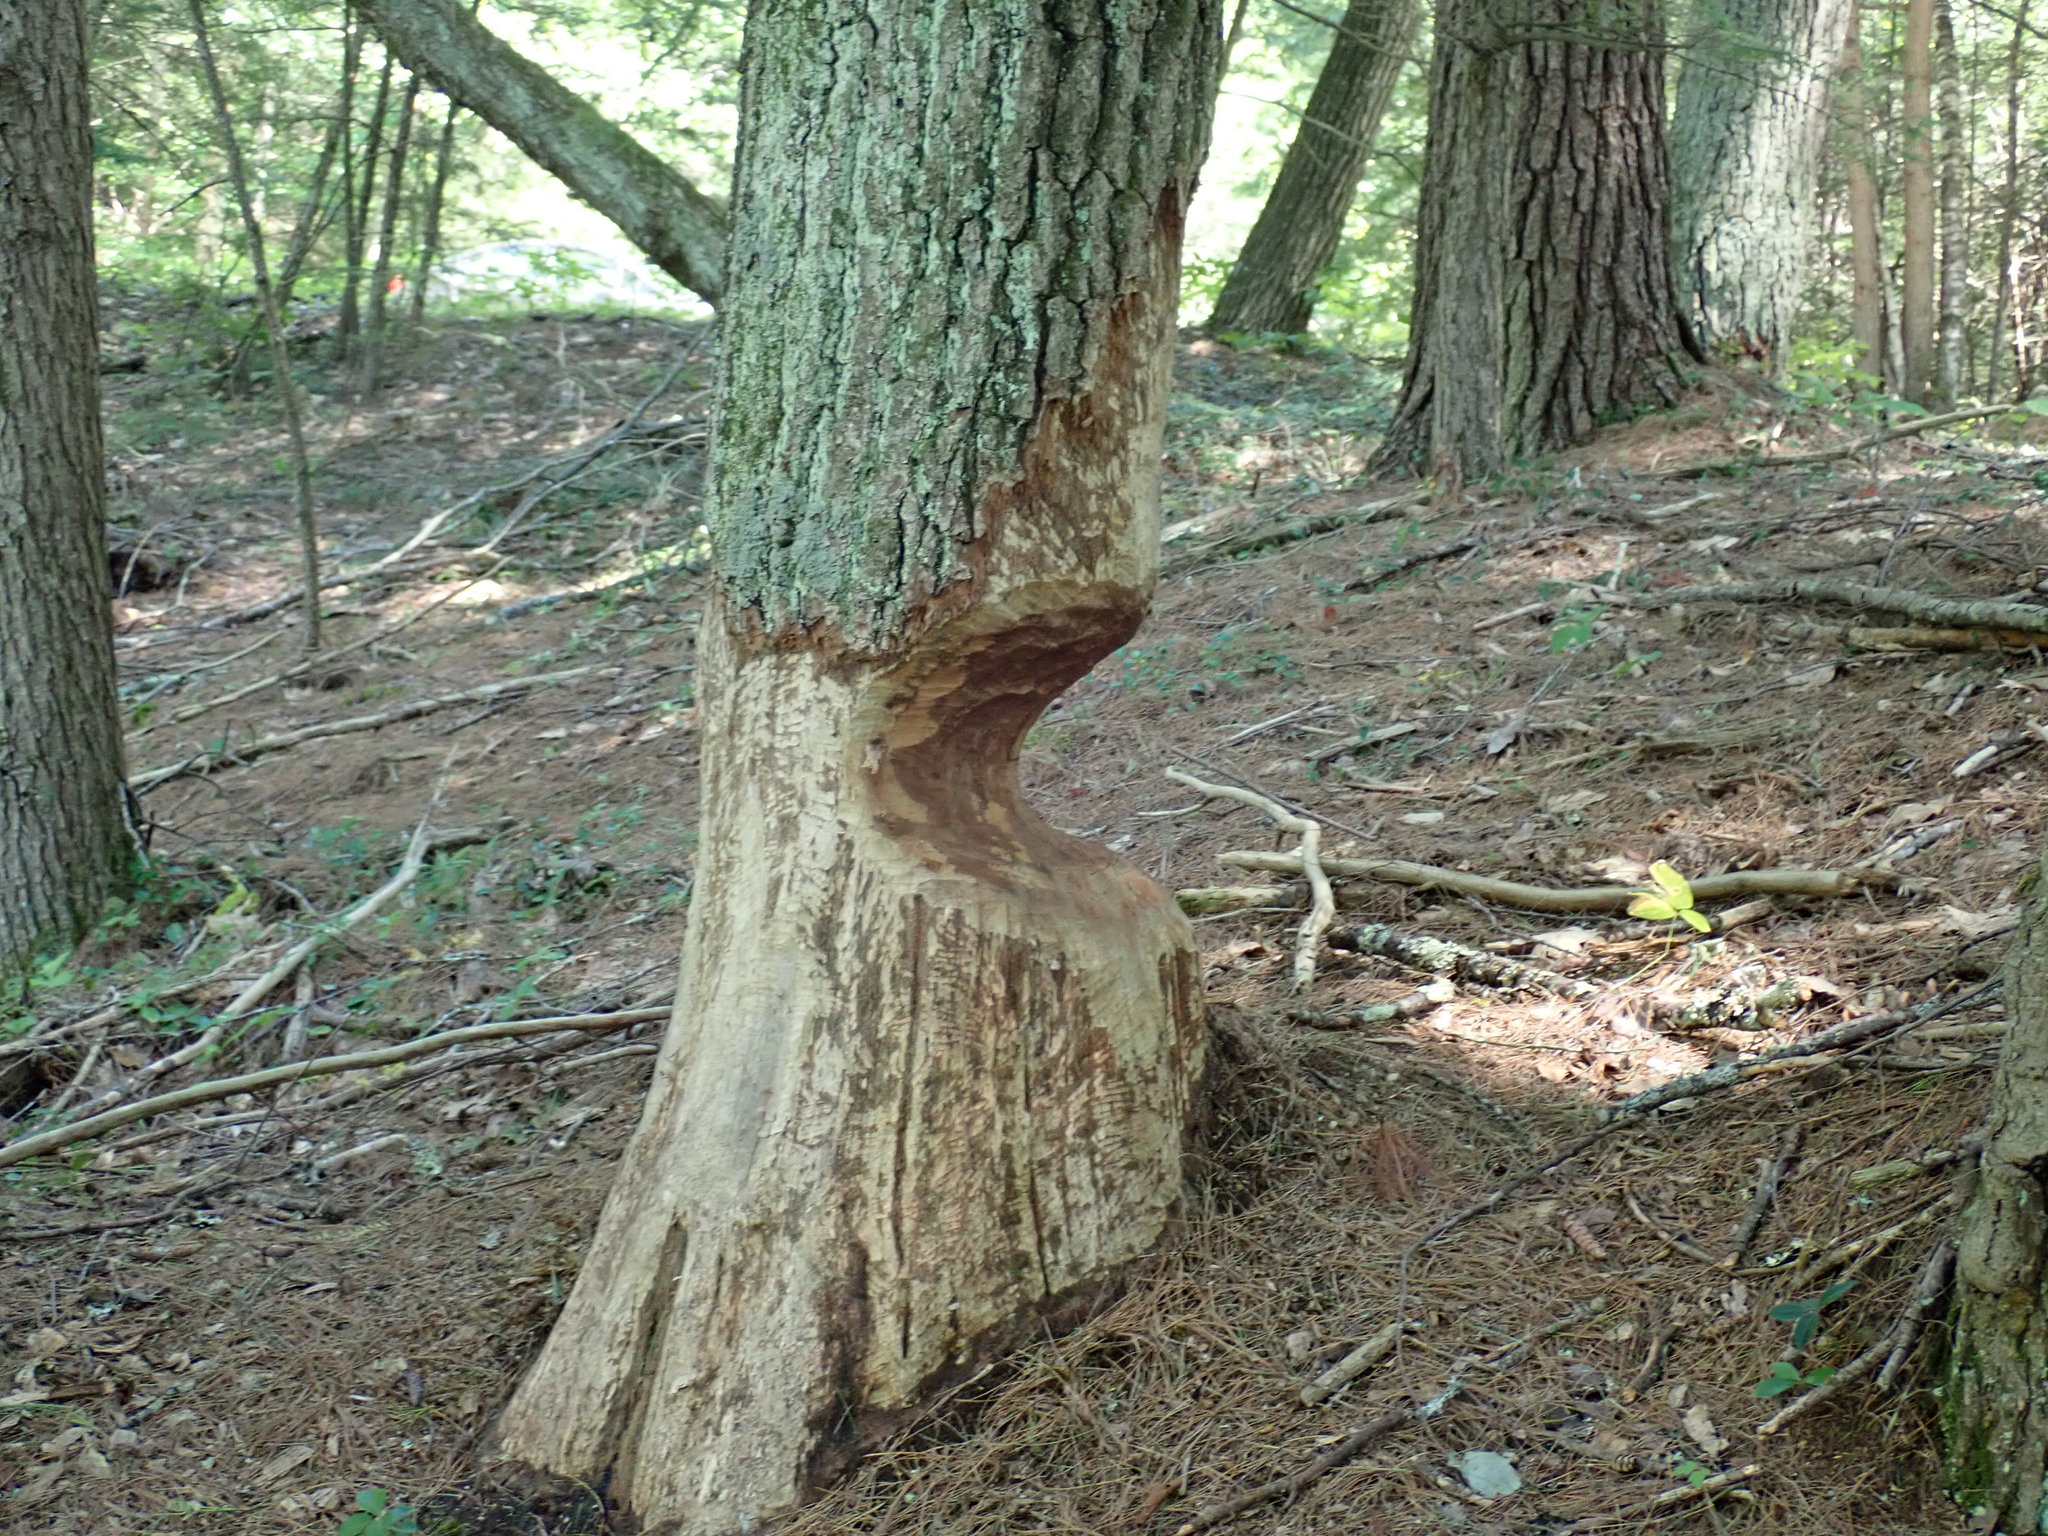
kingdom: Animalia
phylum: Chordata
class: Mammalia
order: Rodentia
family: Castoridae
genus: Castor
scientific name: Castor canadensis
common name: American beaver
